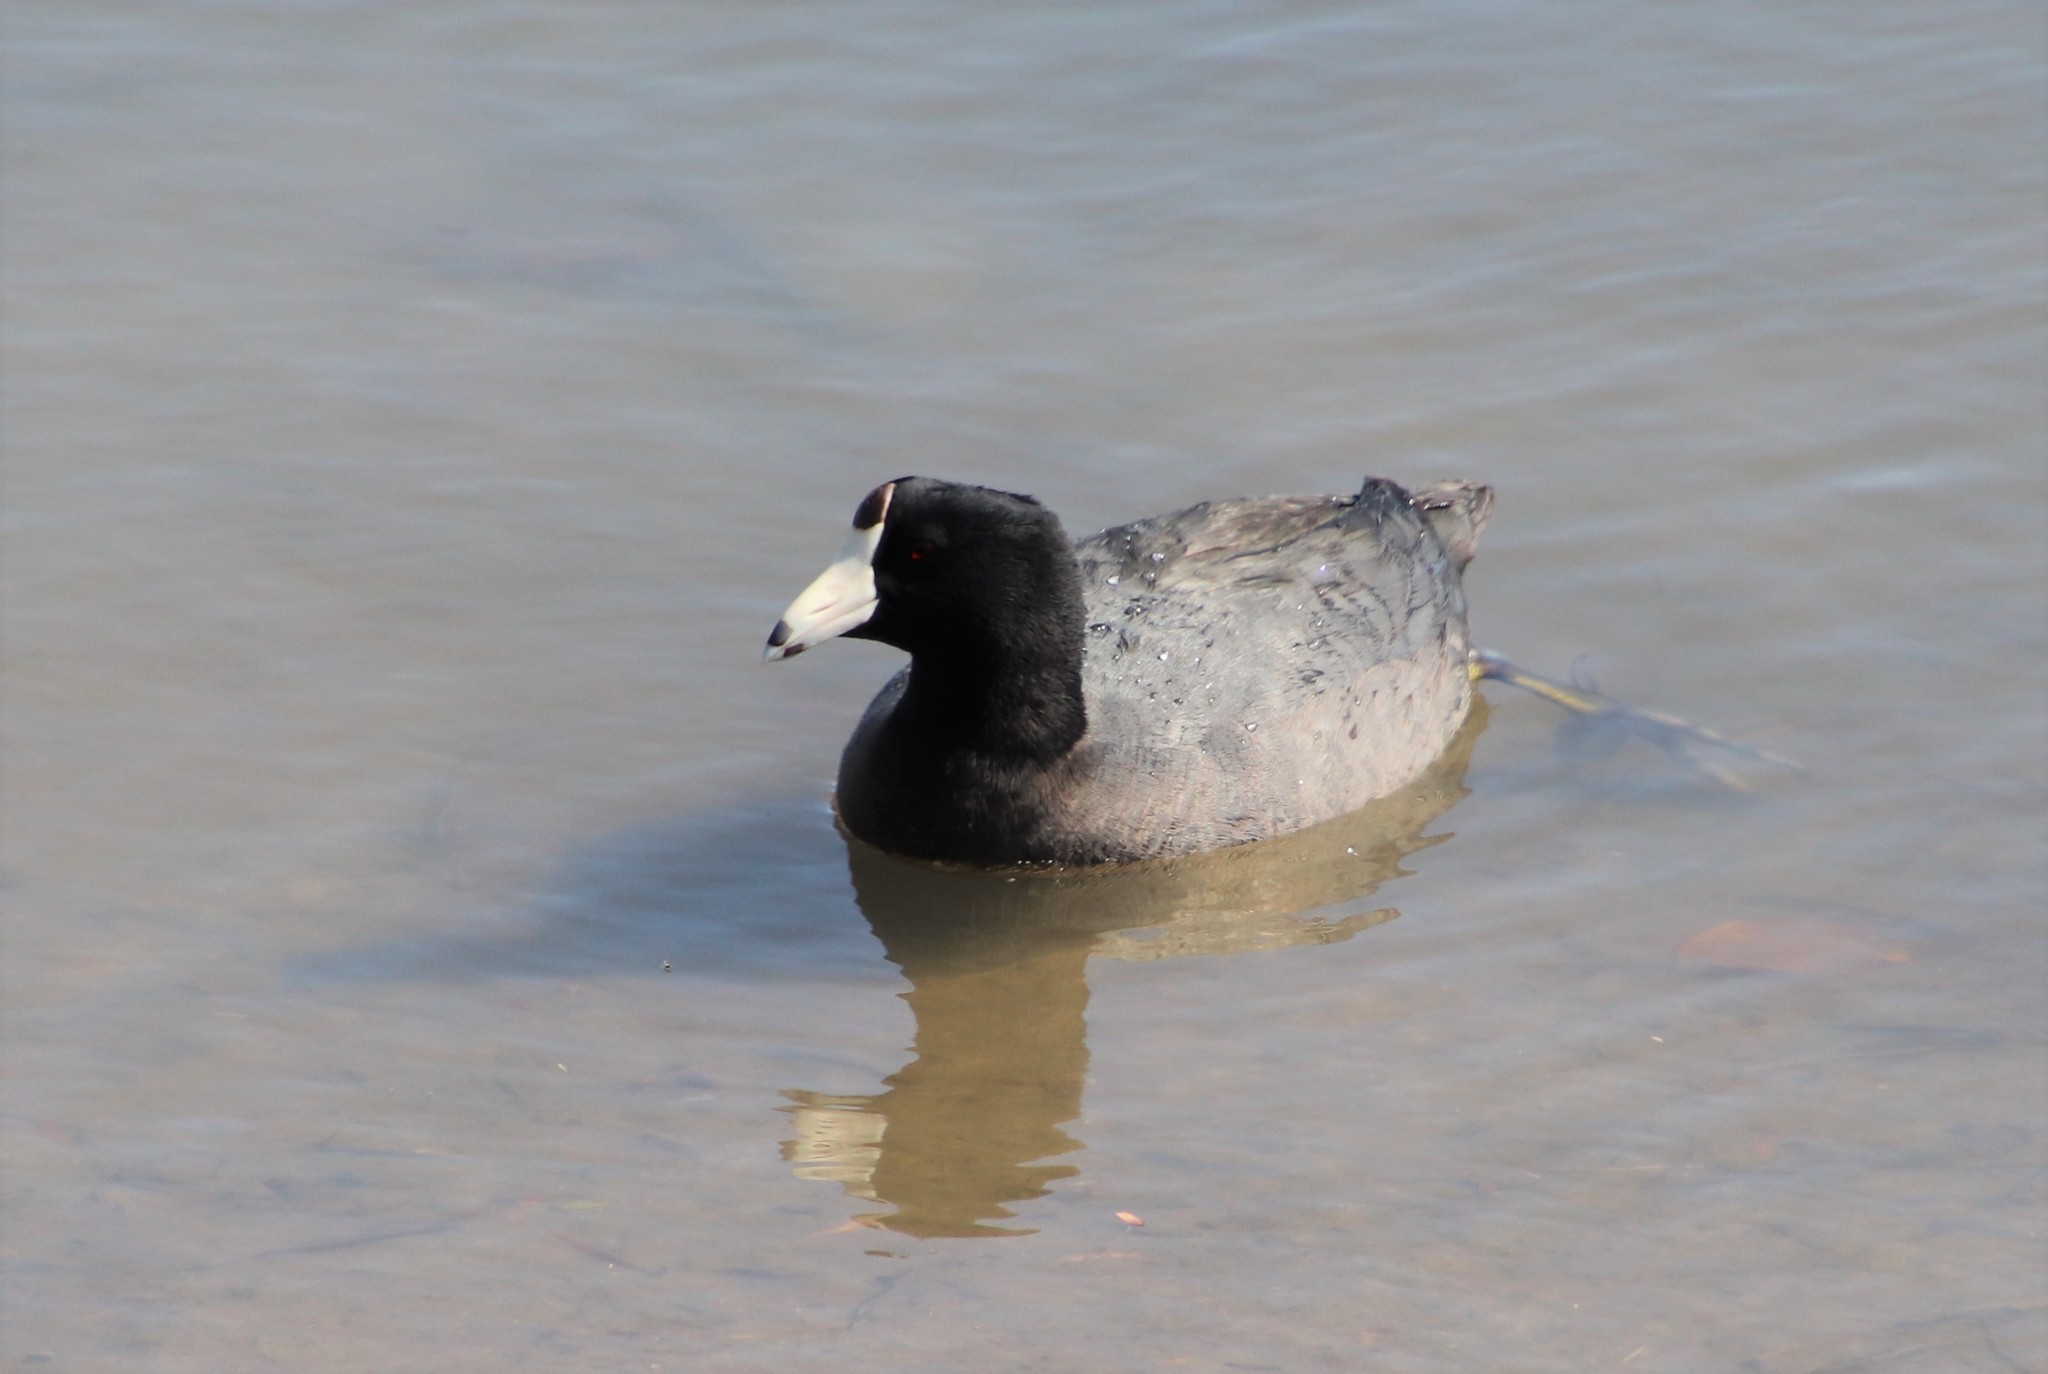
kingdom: Animalia
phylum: Chordata
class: Aves
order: Gruiformes
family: Rallidae
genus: Fulica
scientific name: Fulica americana
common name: American coot
